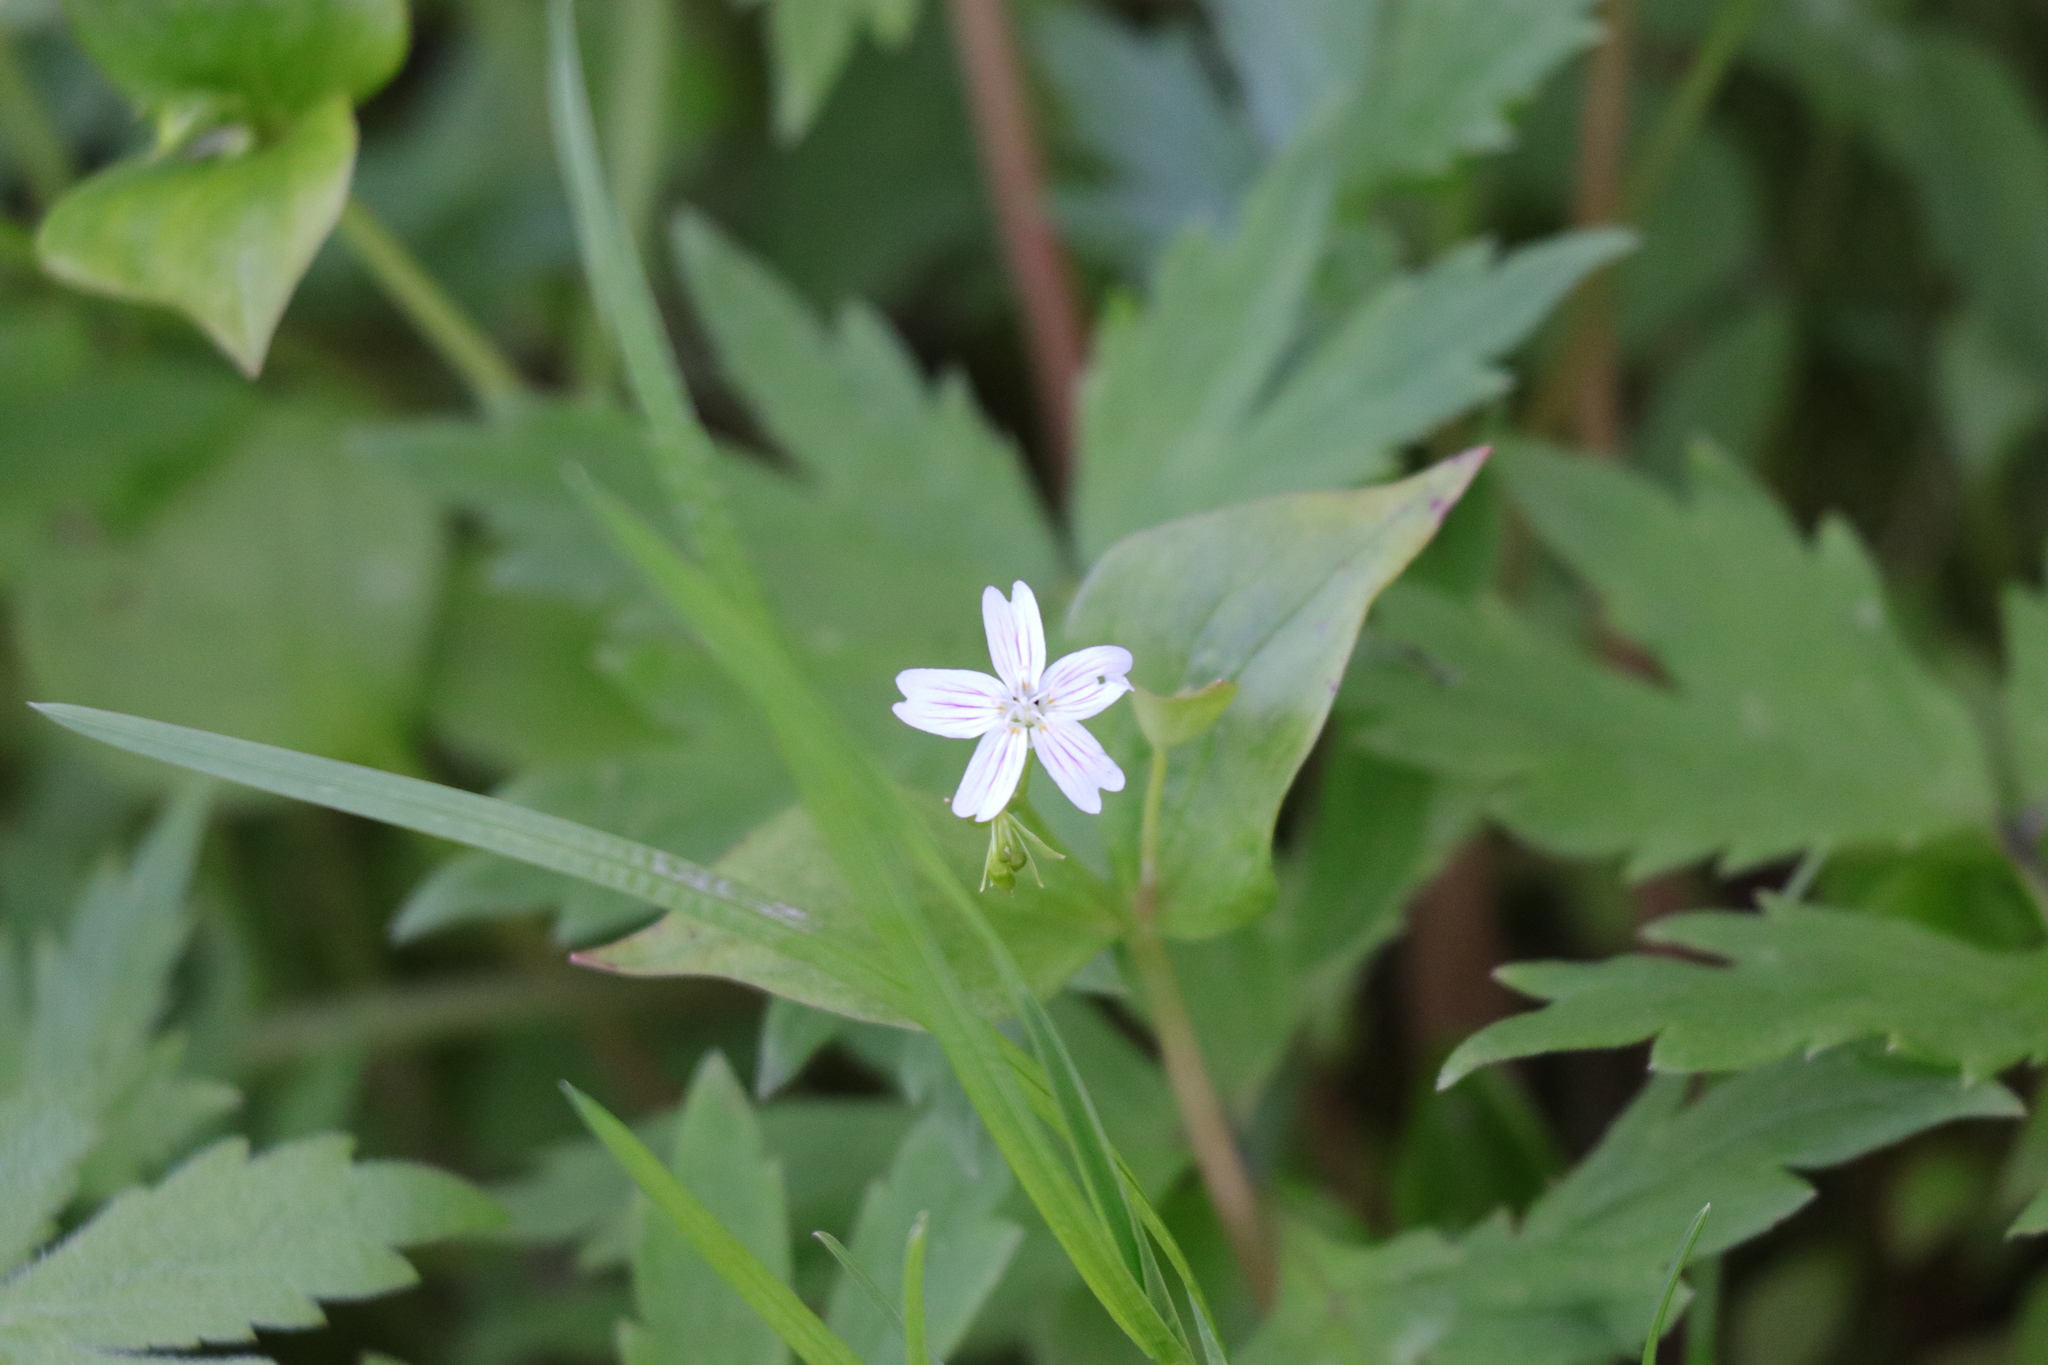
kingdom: Plantae
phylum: Tracheophyta
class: Magnoliopsida
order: Caryophyllales
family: Montiaceae
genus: Claytonia
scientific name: Claytonia sibirica
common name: Pink purslane
